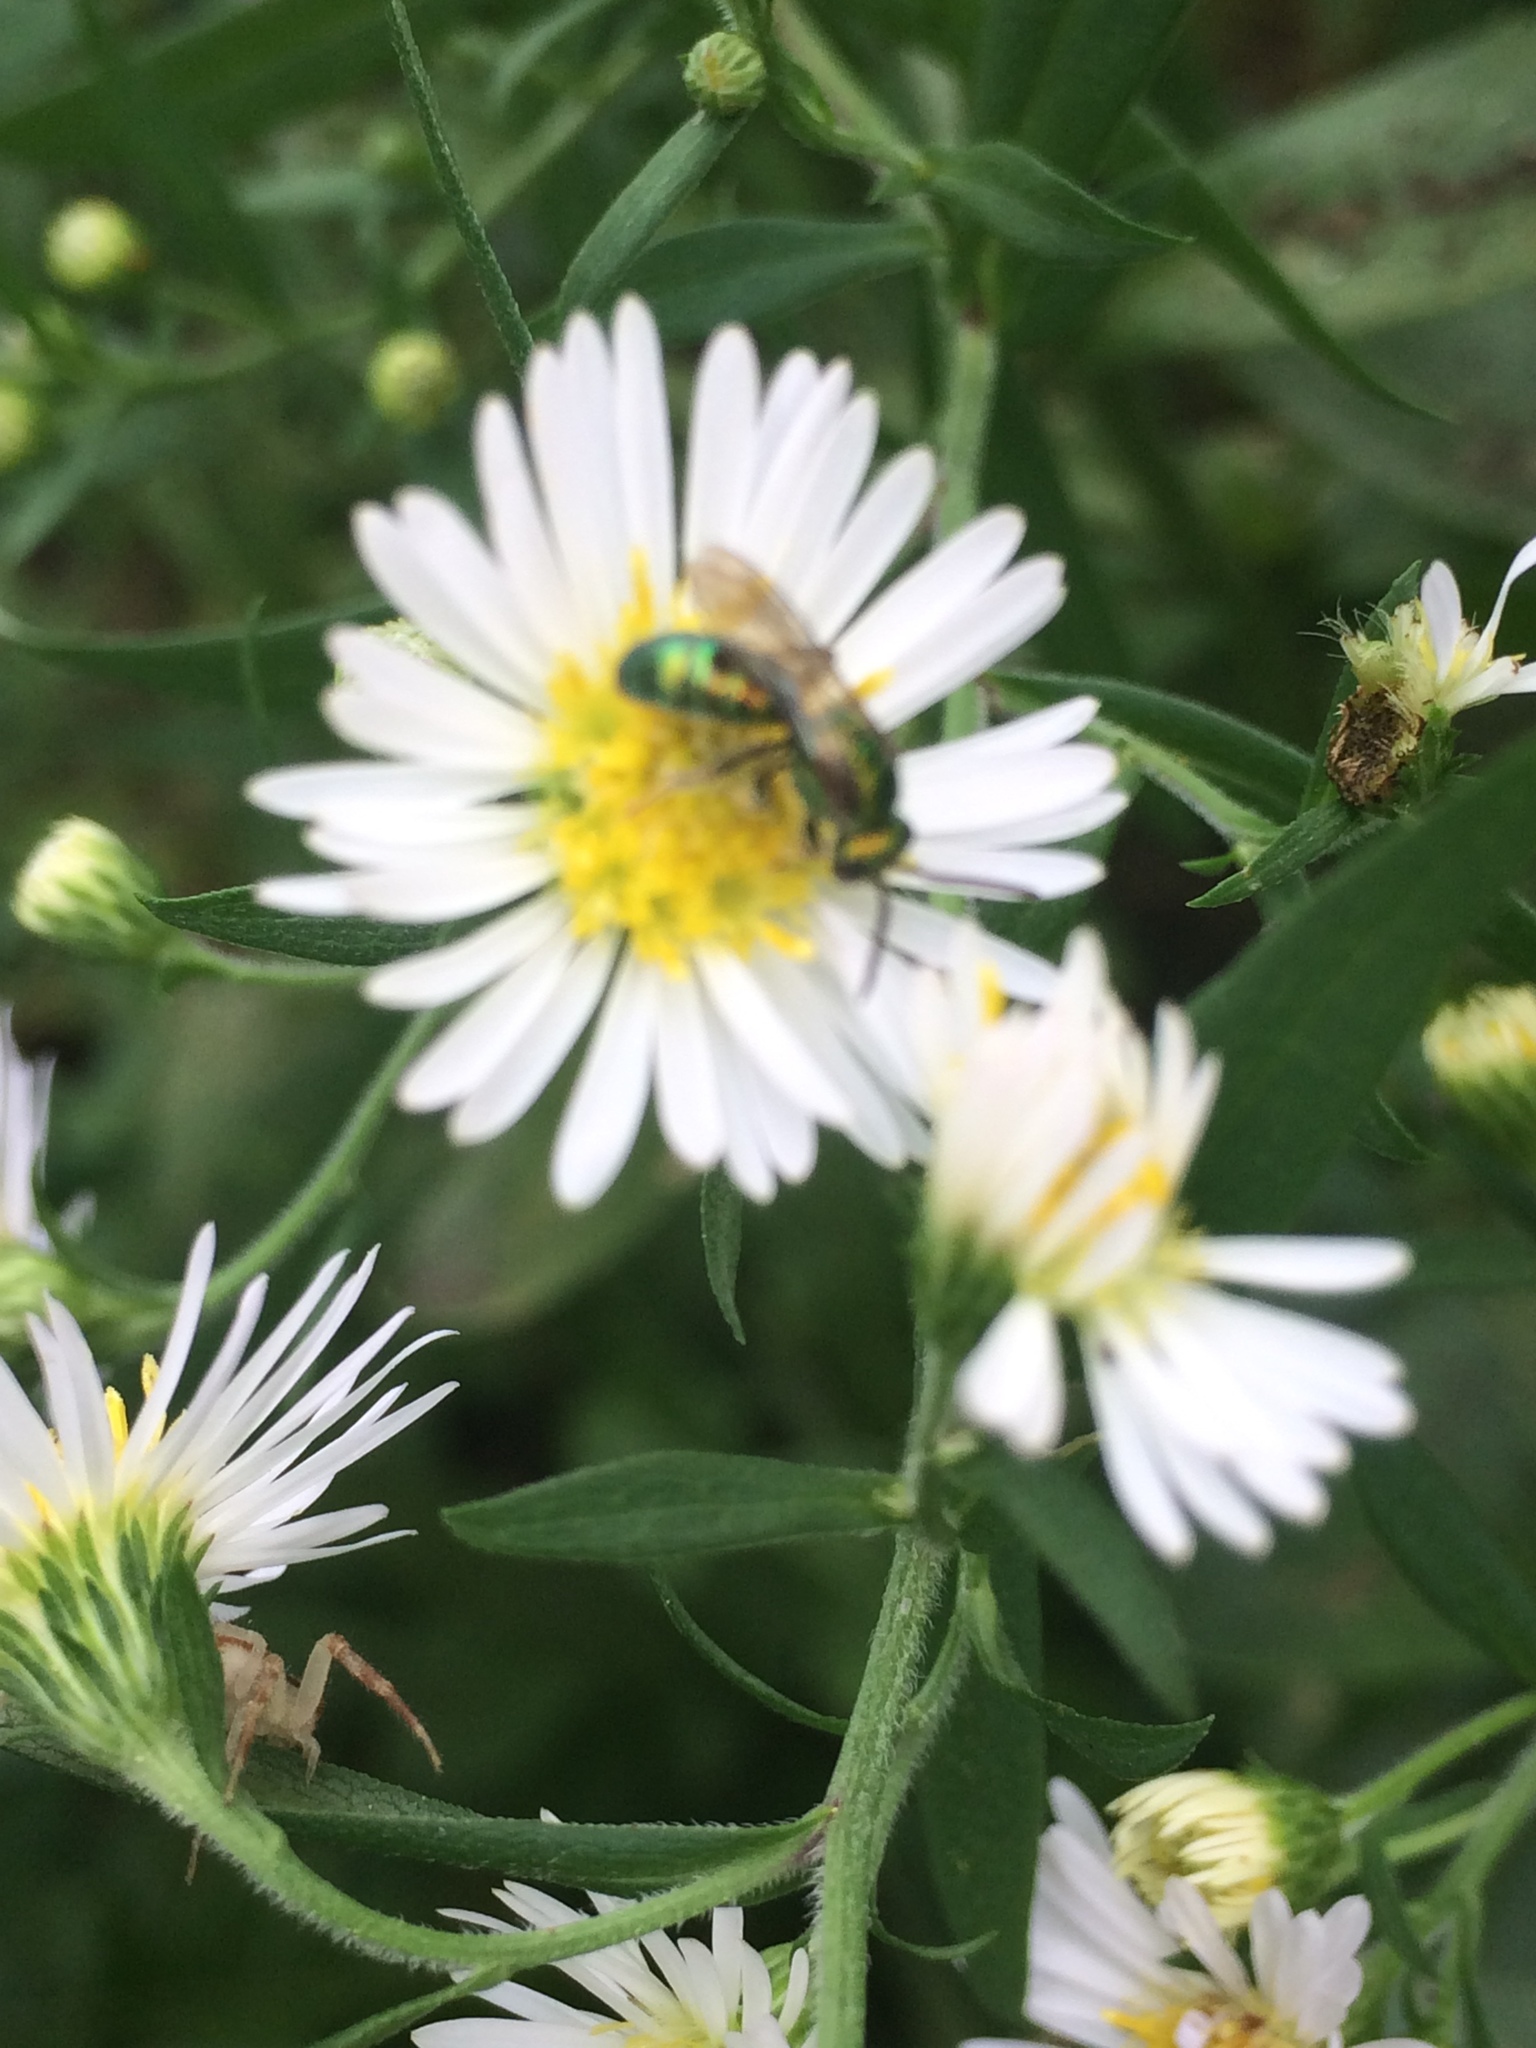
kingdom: Animalia
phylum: Arthropoda
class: Insecta
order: Hymenoptera
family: Halictidae
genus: Augochlora
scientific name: Augochlora pura
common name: Pure green sweat bee
